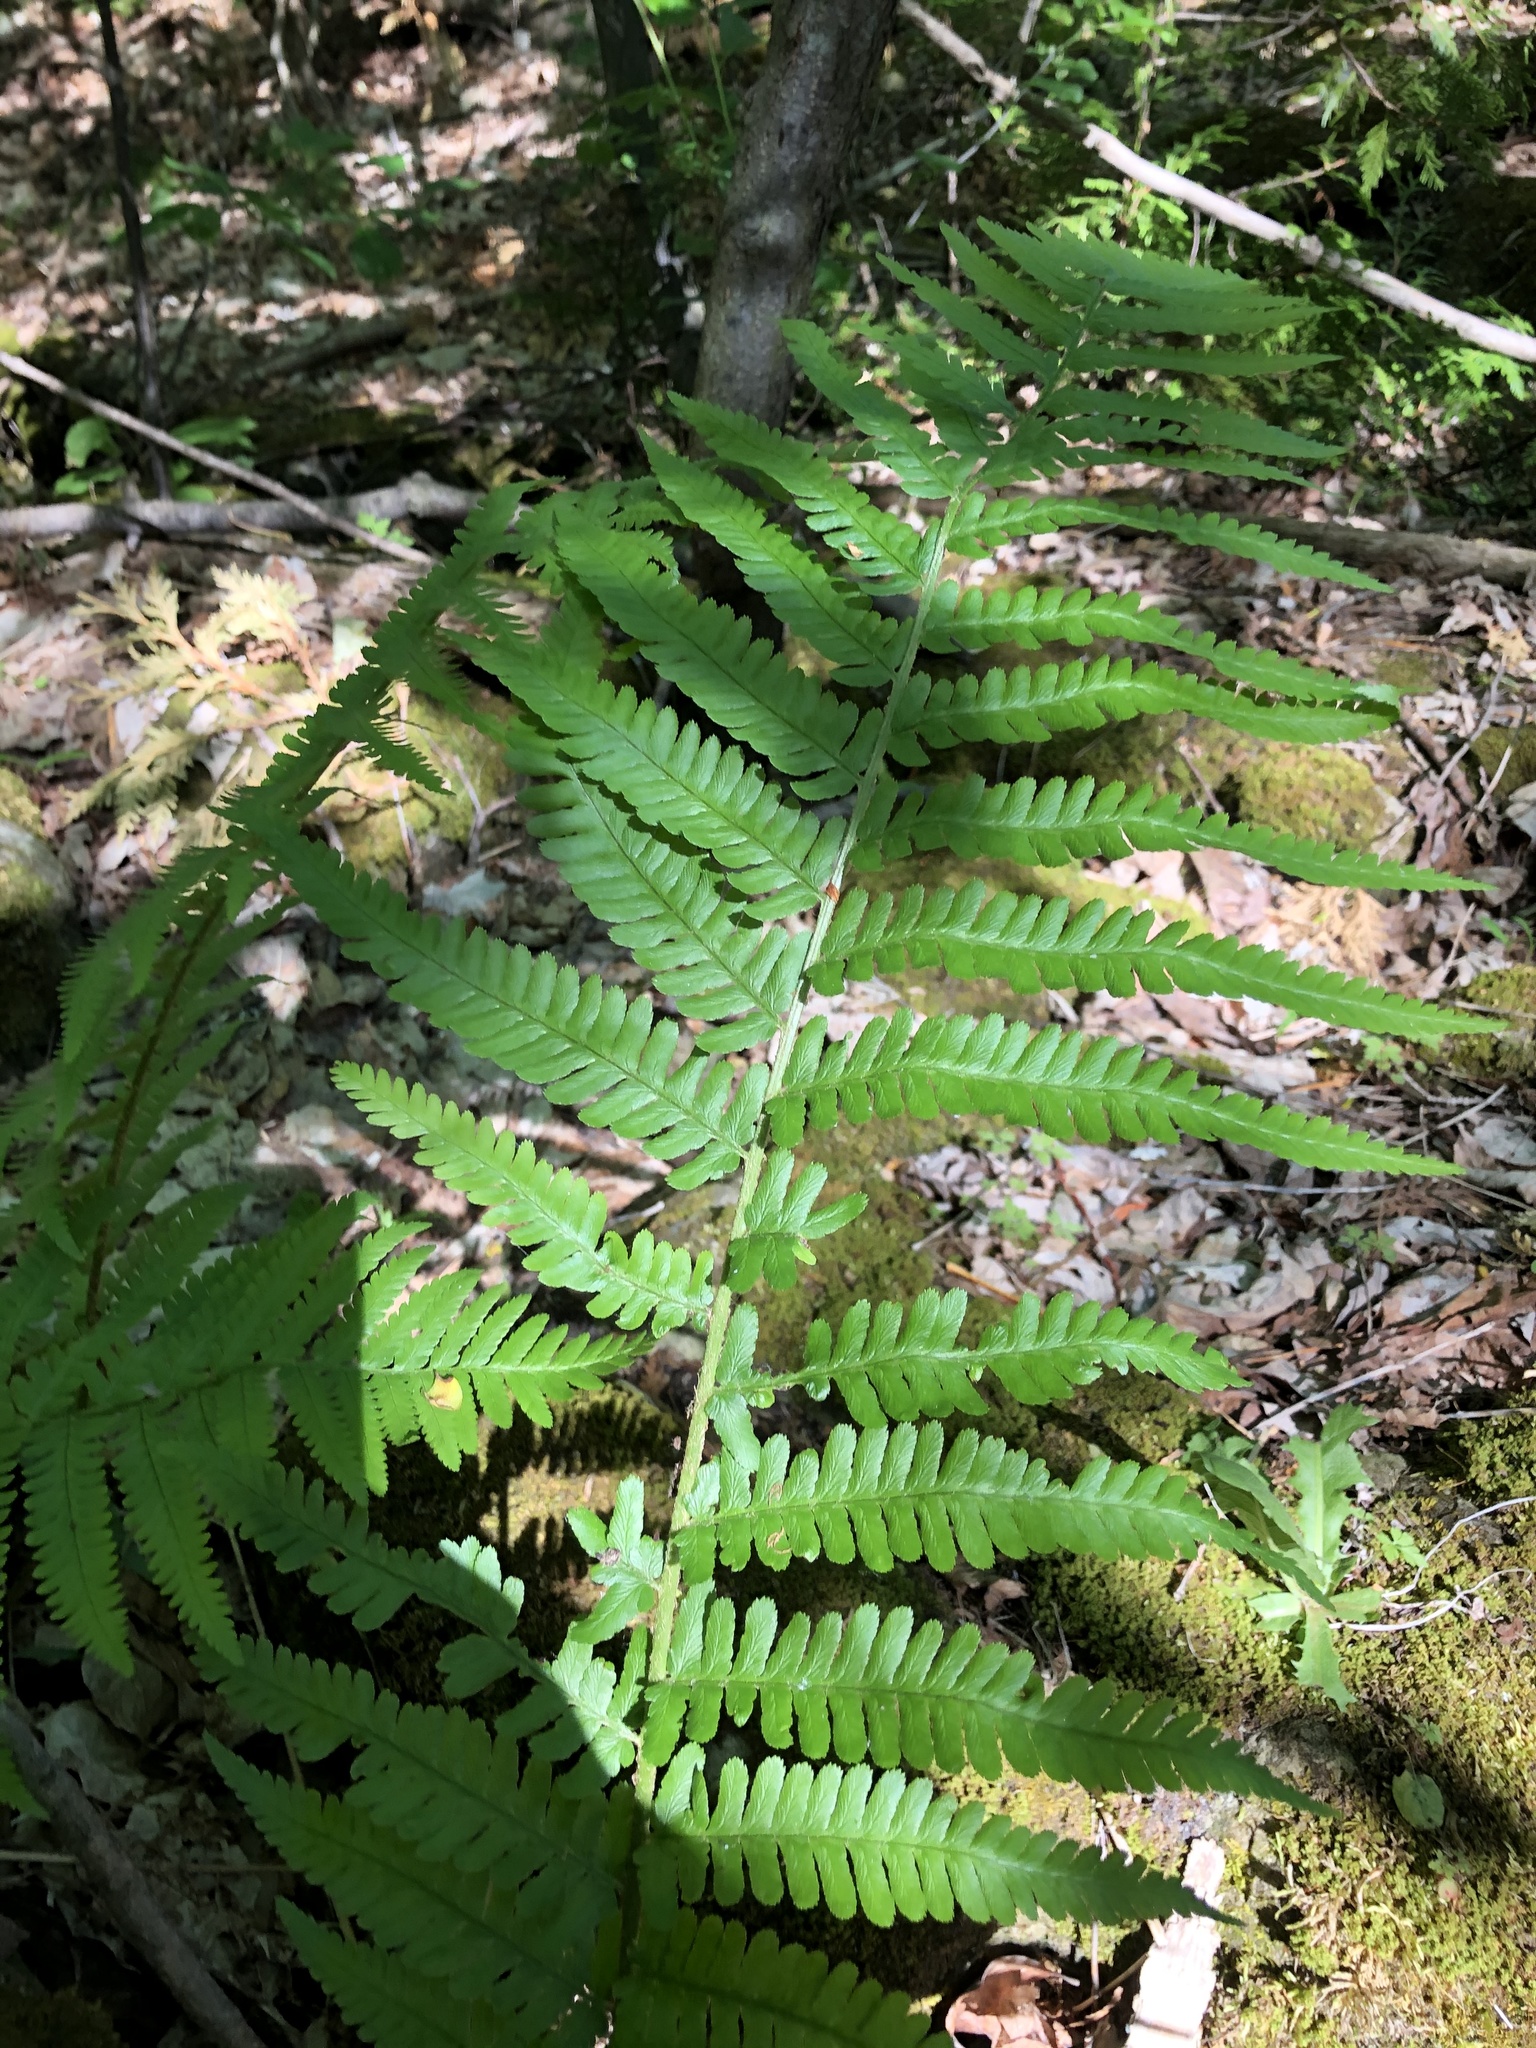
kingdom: Plantae
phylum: Tracheophyta
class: Polypodiopsida
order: Polypodiales
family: Dryopteridaceae
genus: Dryopteris
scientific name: Dryopteris filix-mas
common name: Male fern
